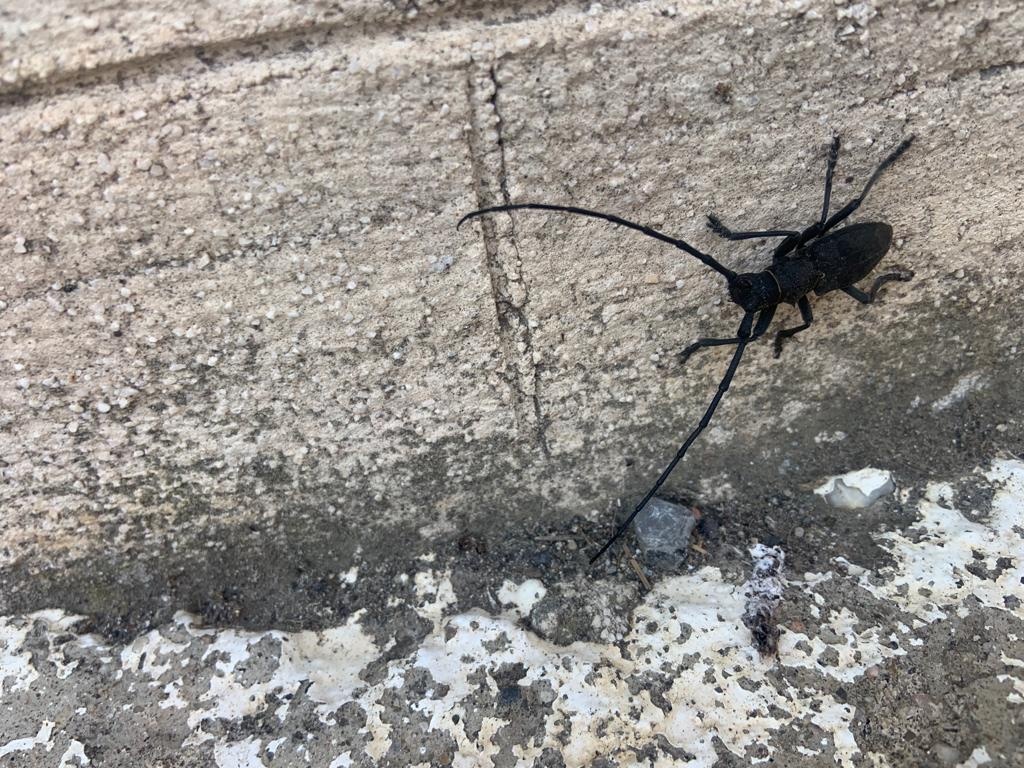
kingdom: Animalia
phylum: Arthropoda
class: Insecta
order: Coleoptera
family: Cerambycidae
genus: Morimus
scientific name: Morimus asper
